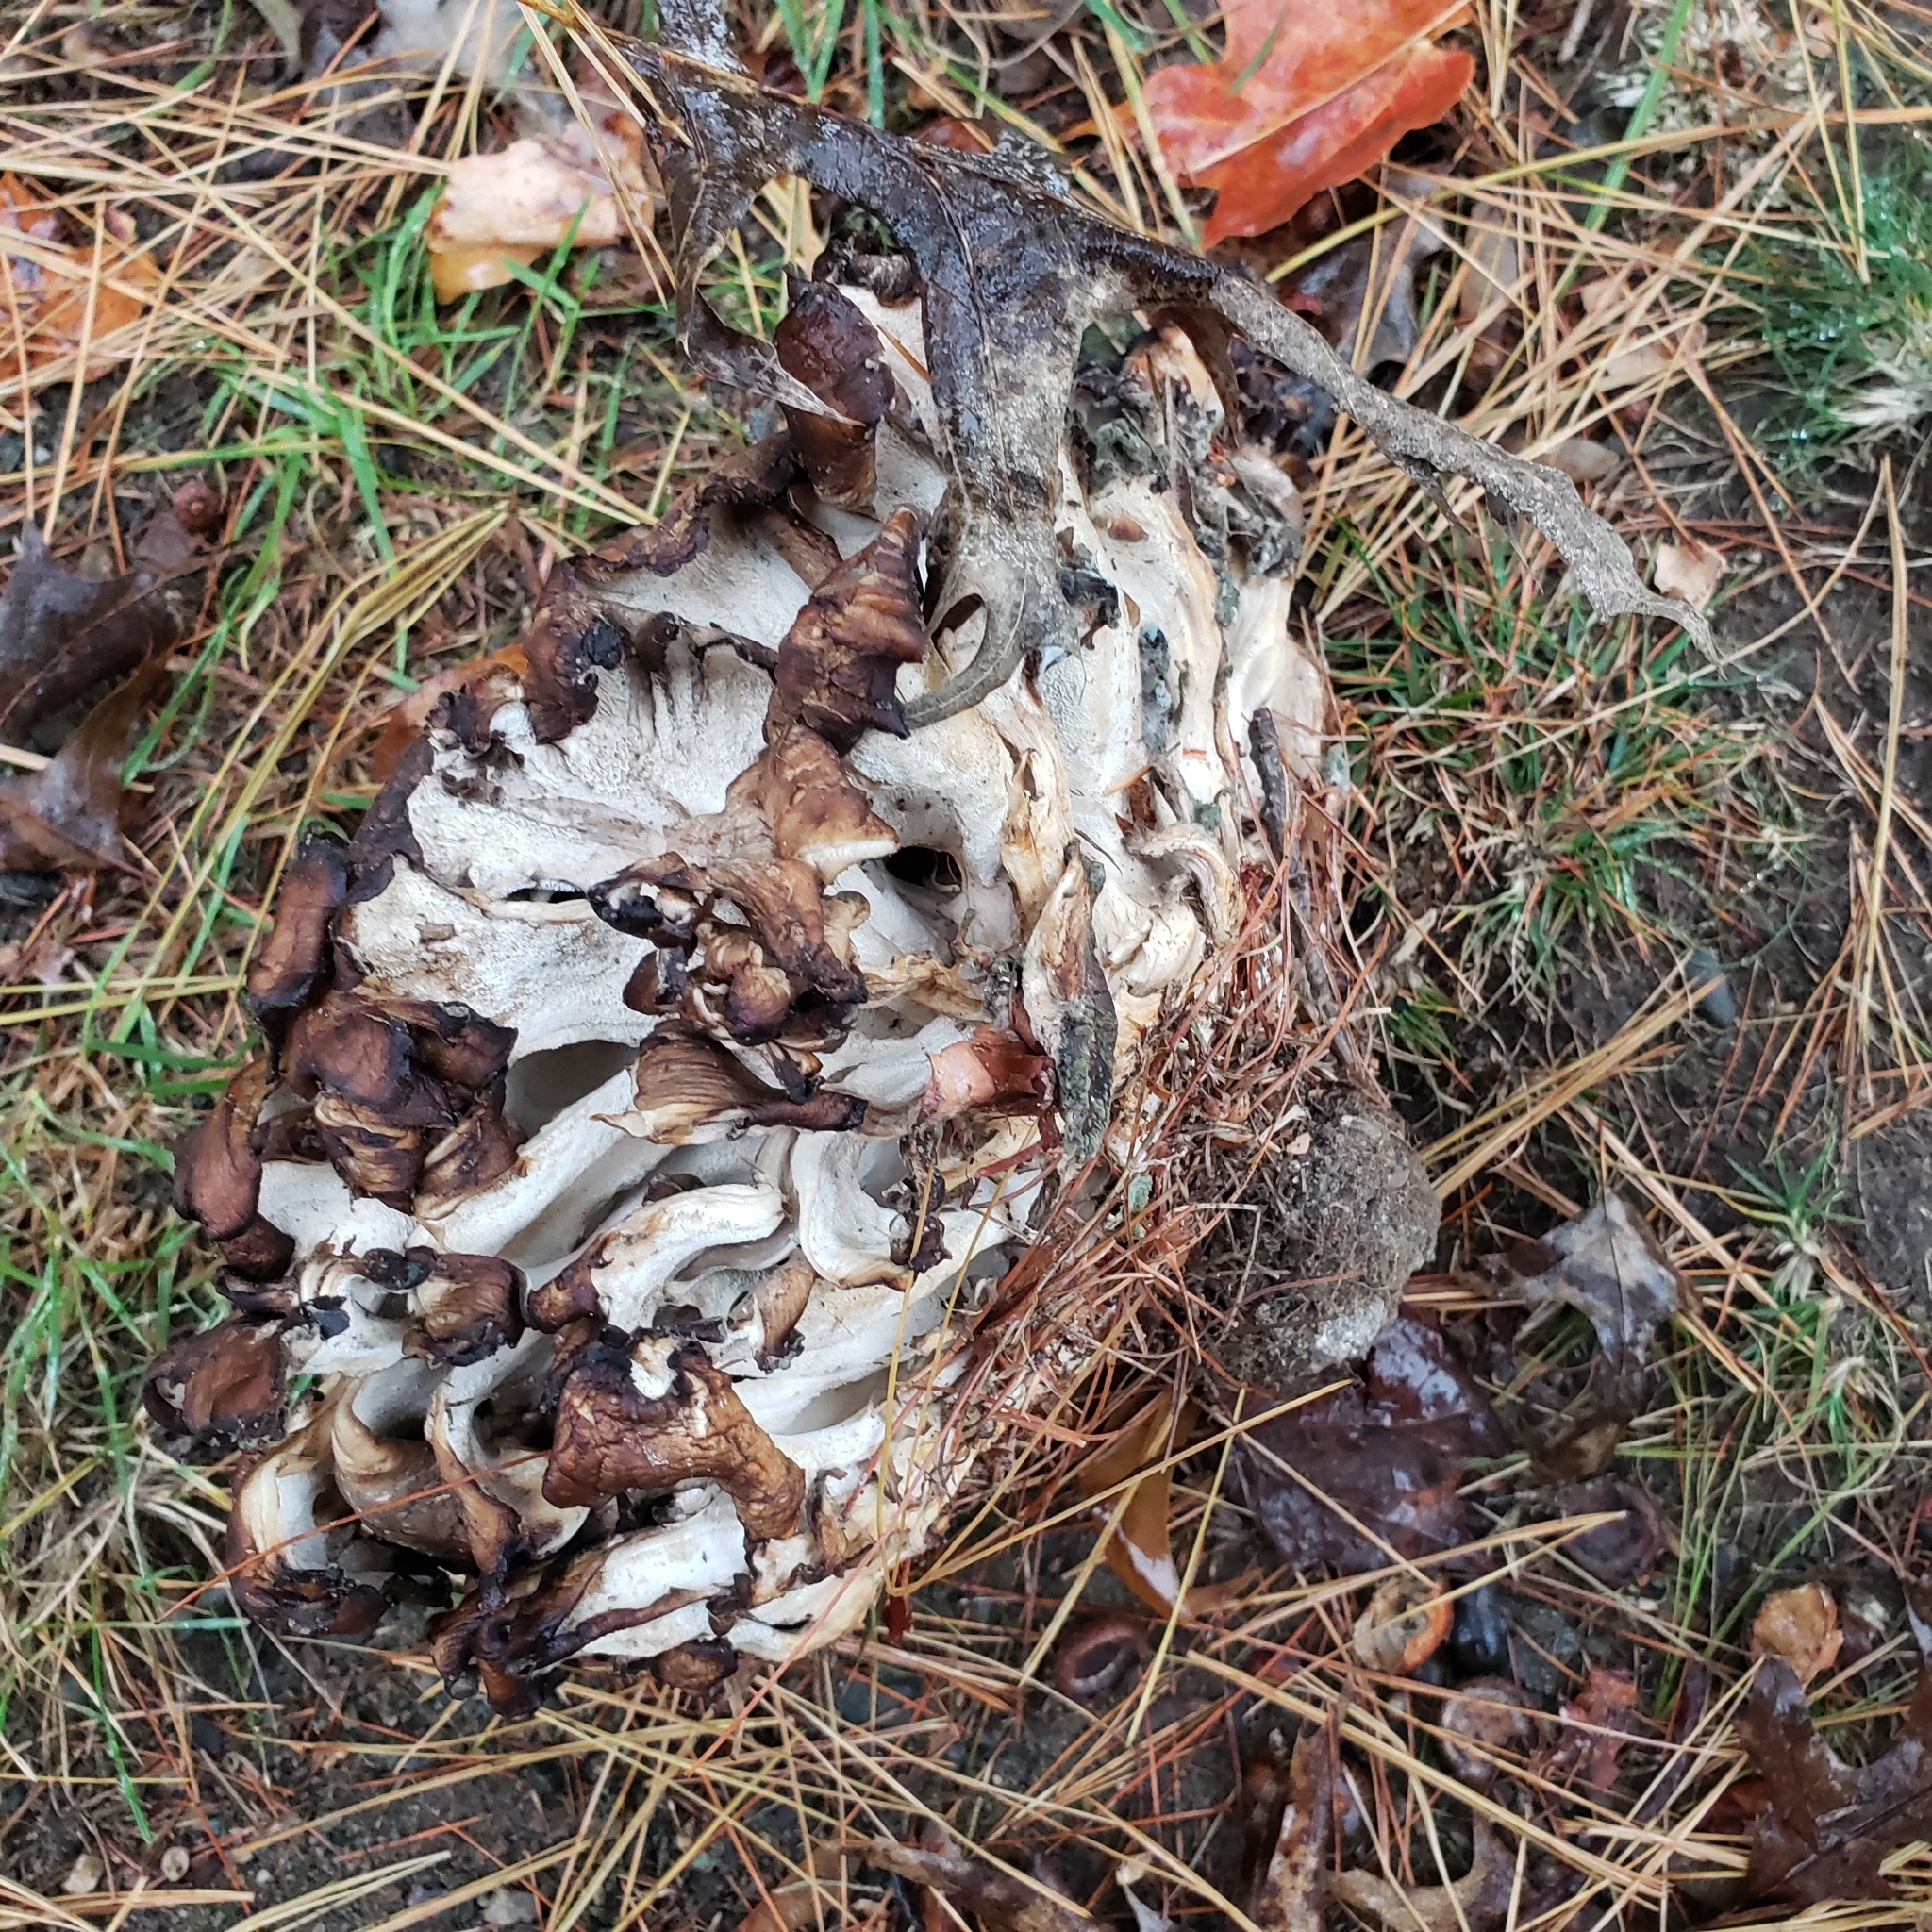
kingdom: Fungi
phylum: Basidiomycota
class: Agaricomycetes
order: Polyporales
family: Grifolaceae
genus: Grifola
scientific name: Grifola frondosa
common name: Hen of the woods
